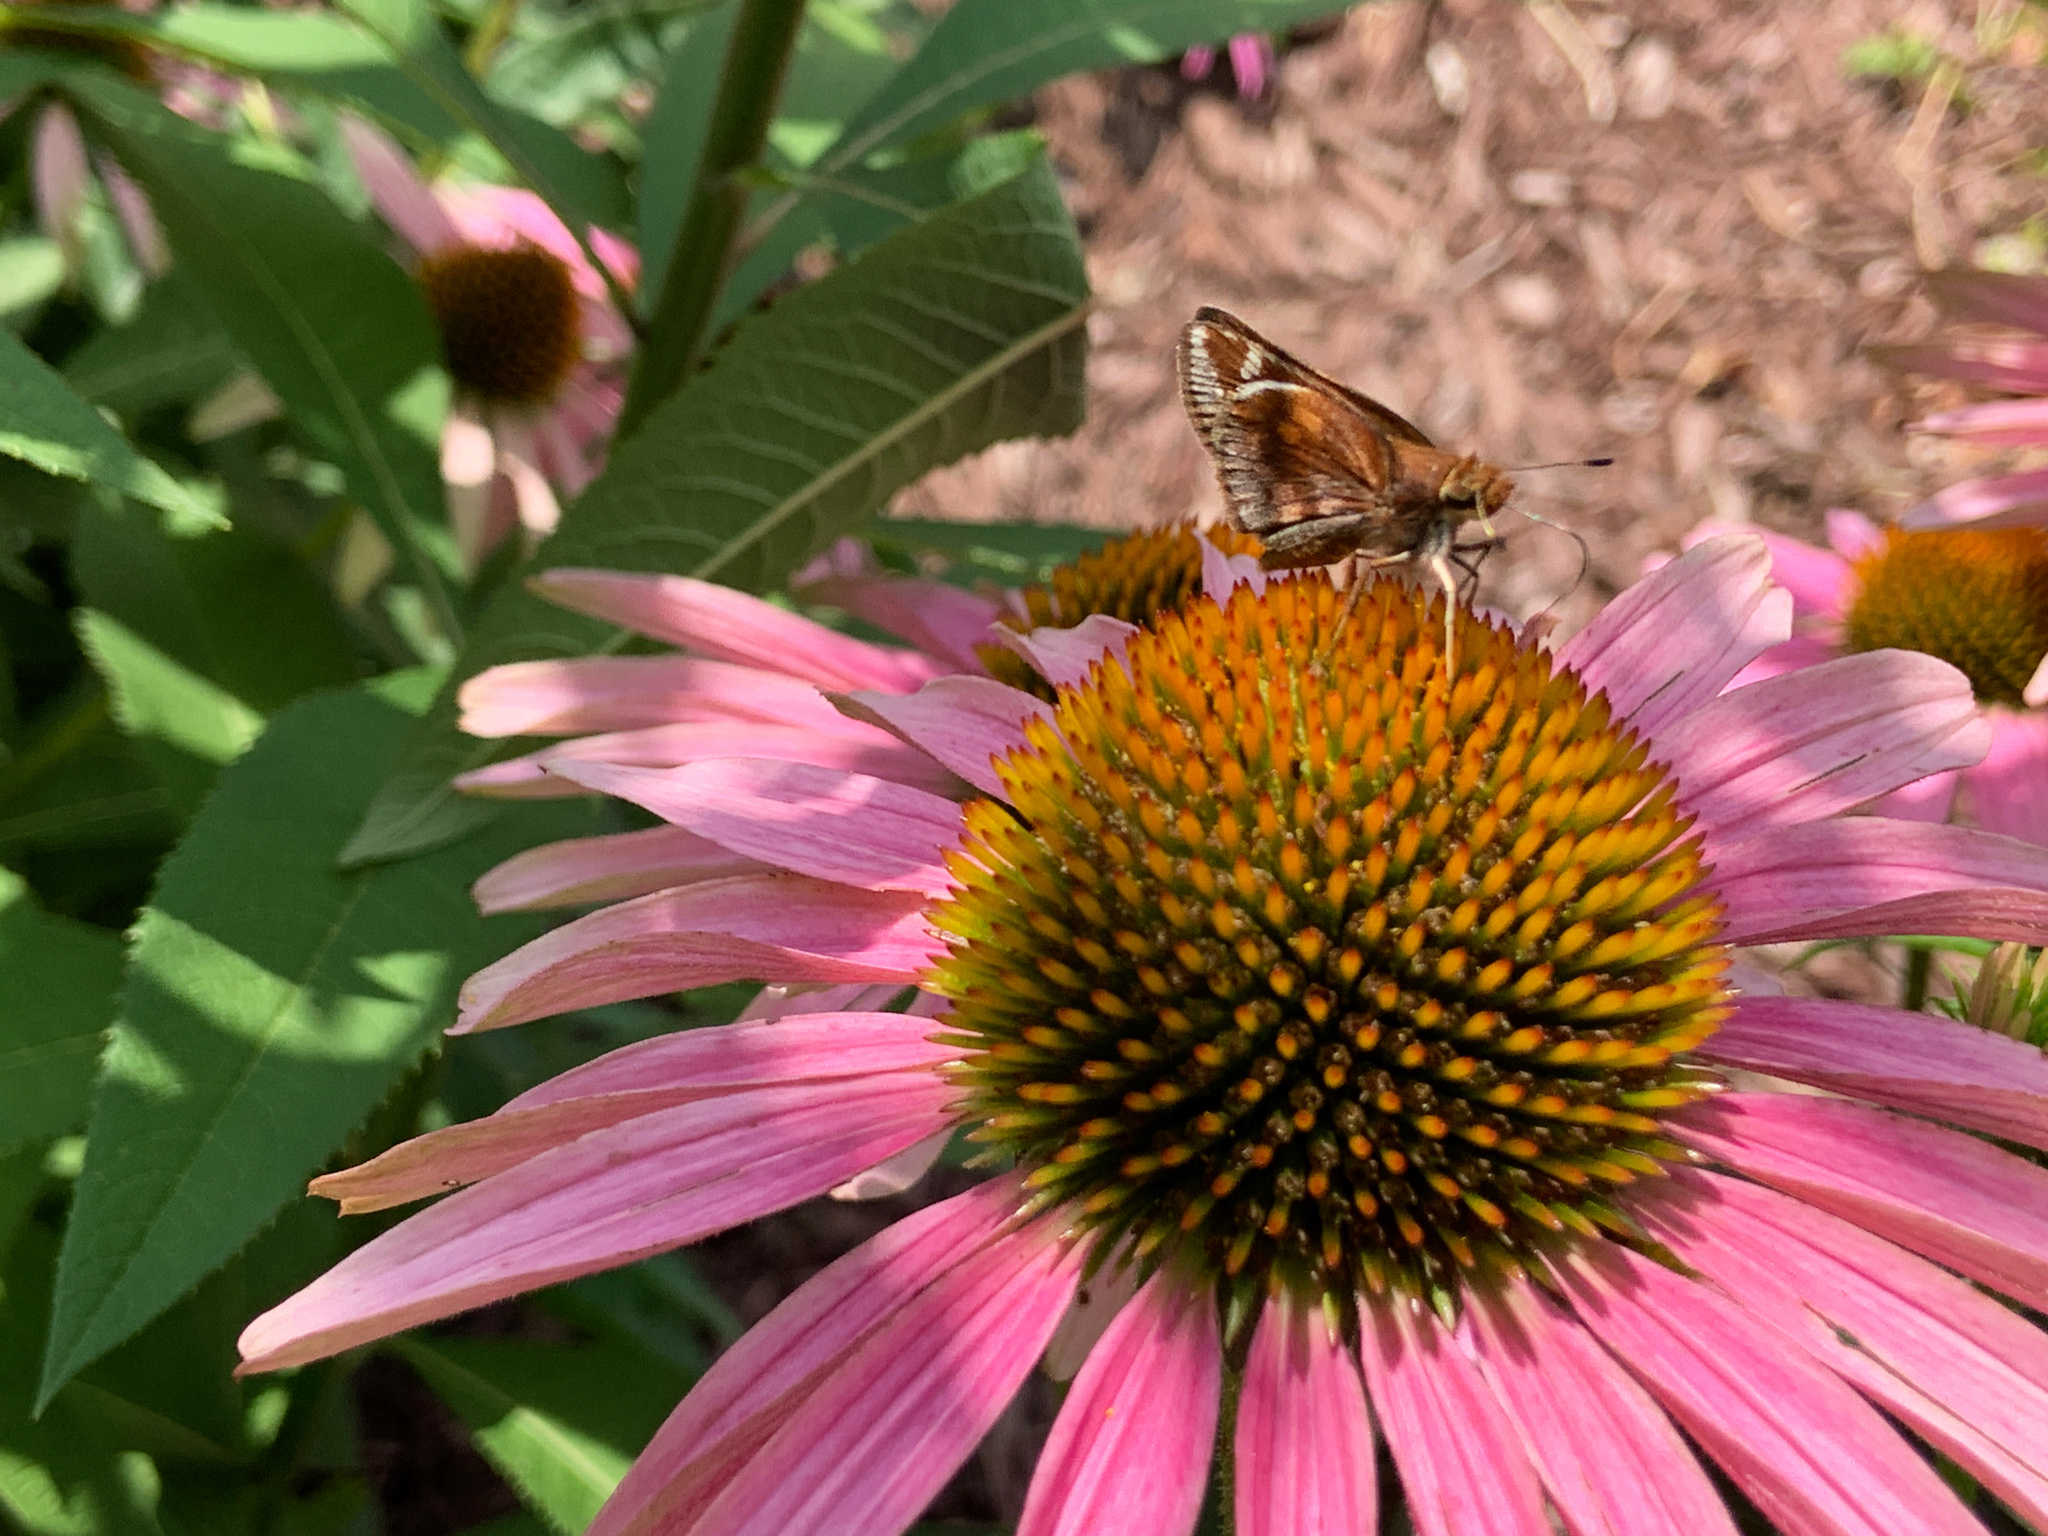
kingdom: Animalia
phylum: Arthropoda
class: Insecta
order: Lepidoptera
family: Hesperiidae
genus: Lon
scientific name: Lon zabulon
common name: Zabulon skipper
